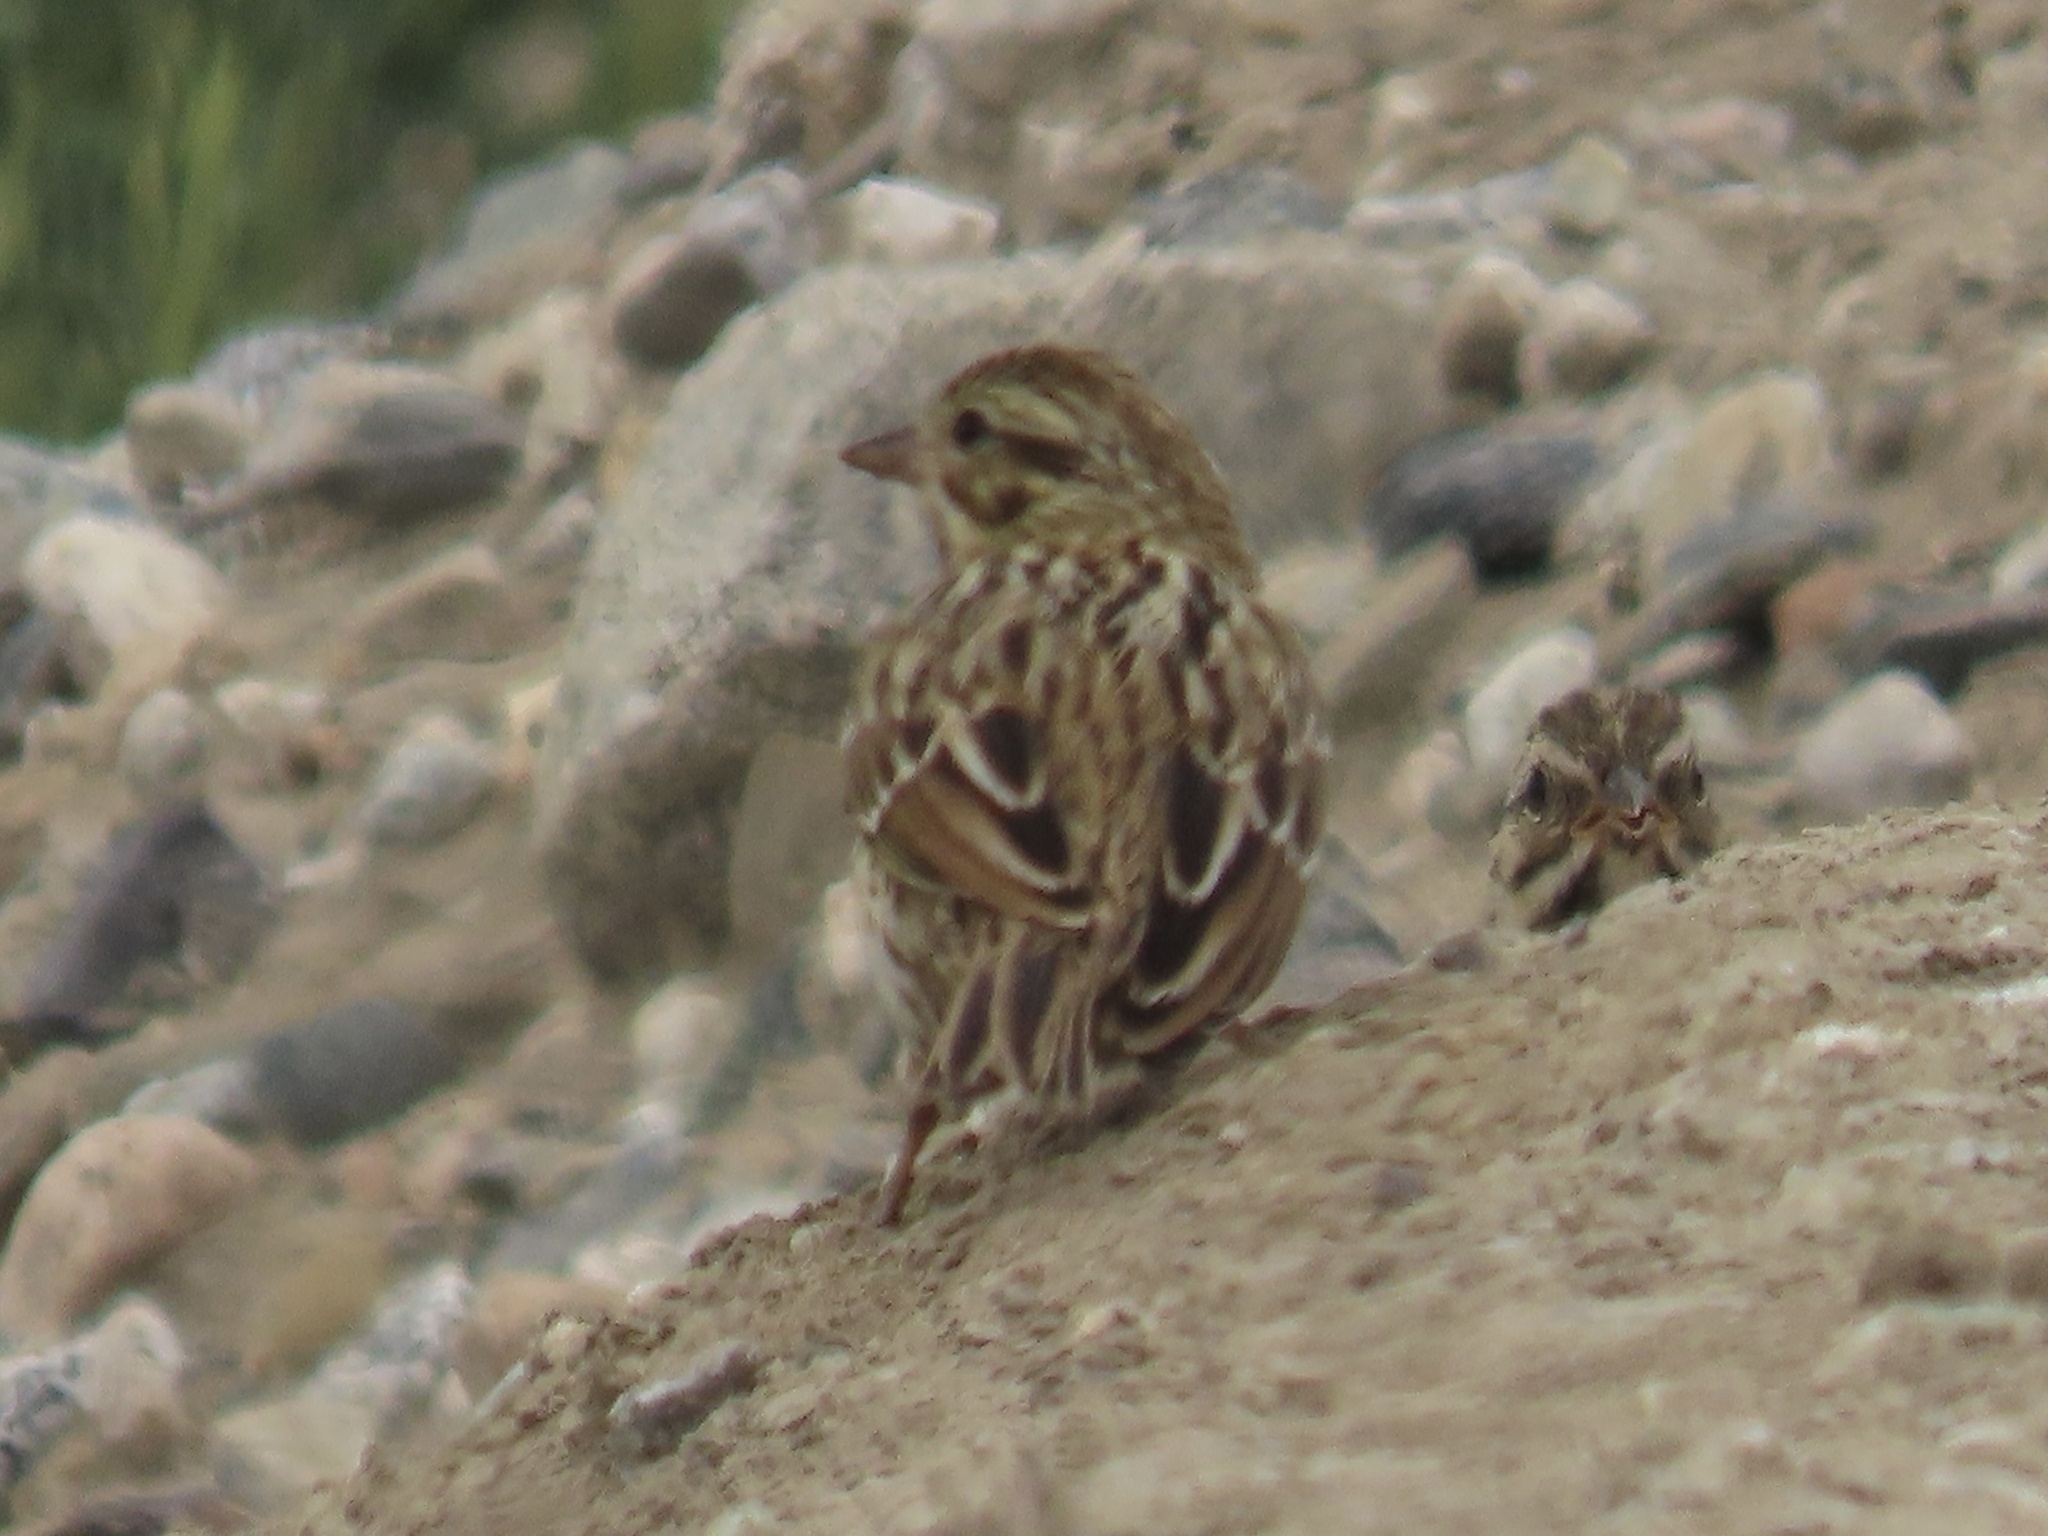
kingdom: Animalia
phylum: Chordata
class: Aves
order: Passeriformes
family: Passerellidae
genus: Passerculus
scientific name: Passerculus sandwichensis
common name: Savannah sparrow
